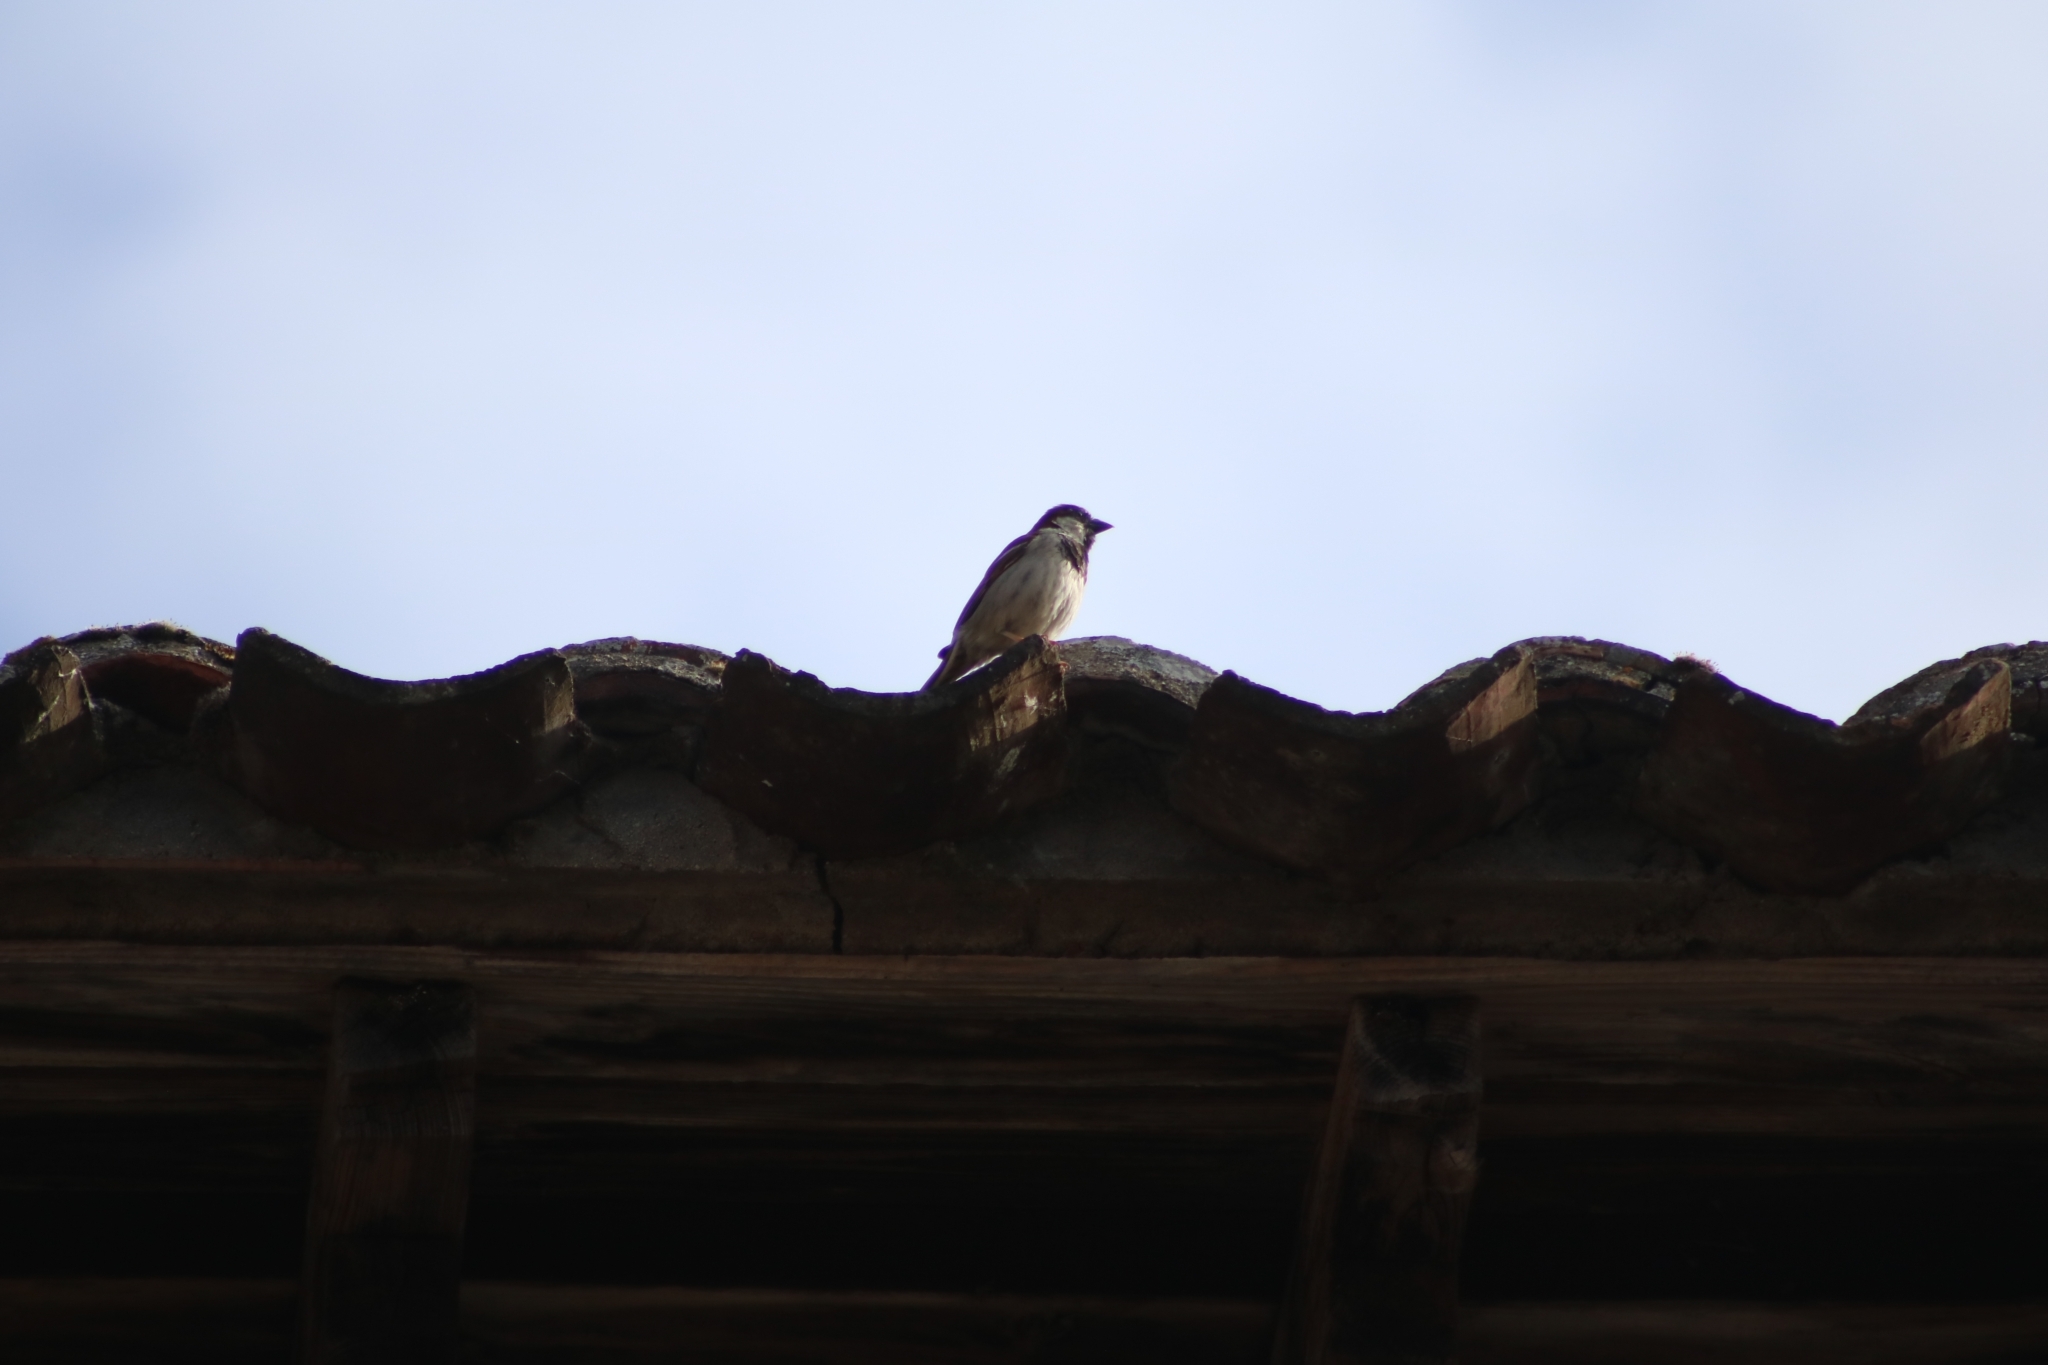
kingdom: Animalia
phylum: Chordata
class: Aves
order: Passeriformes
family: Passeridae
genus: Passer
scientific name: Passer domesticus
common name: House sparrow
